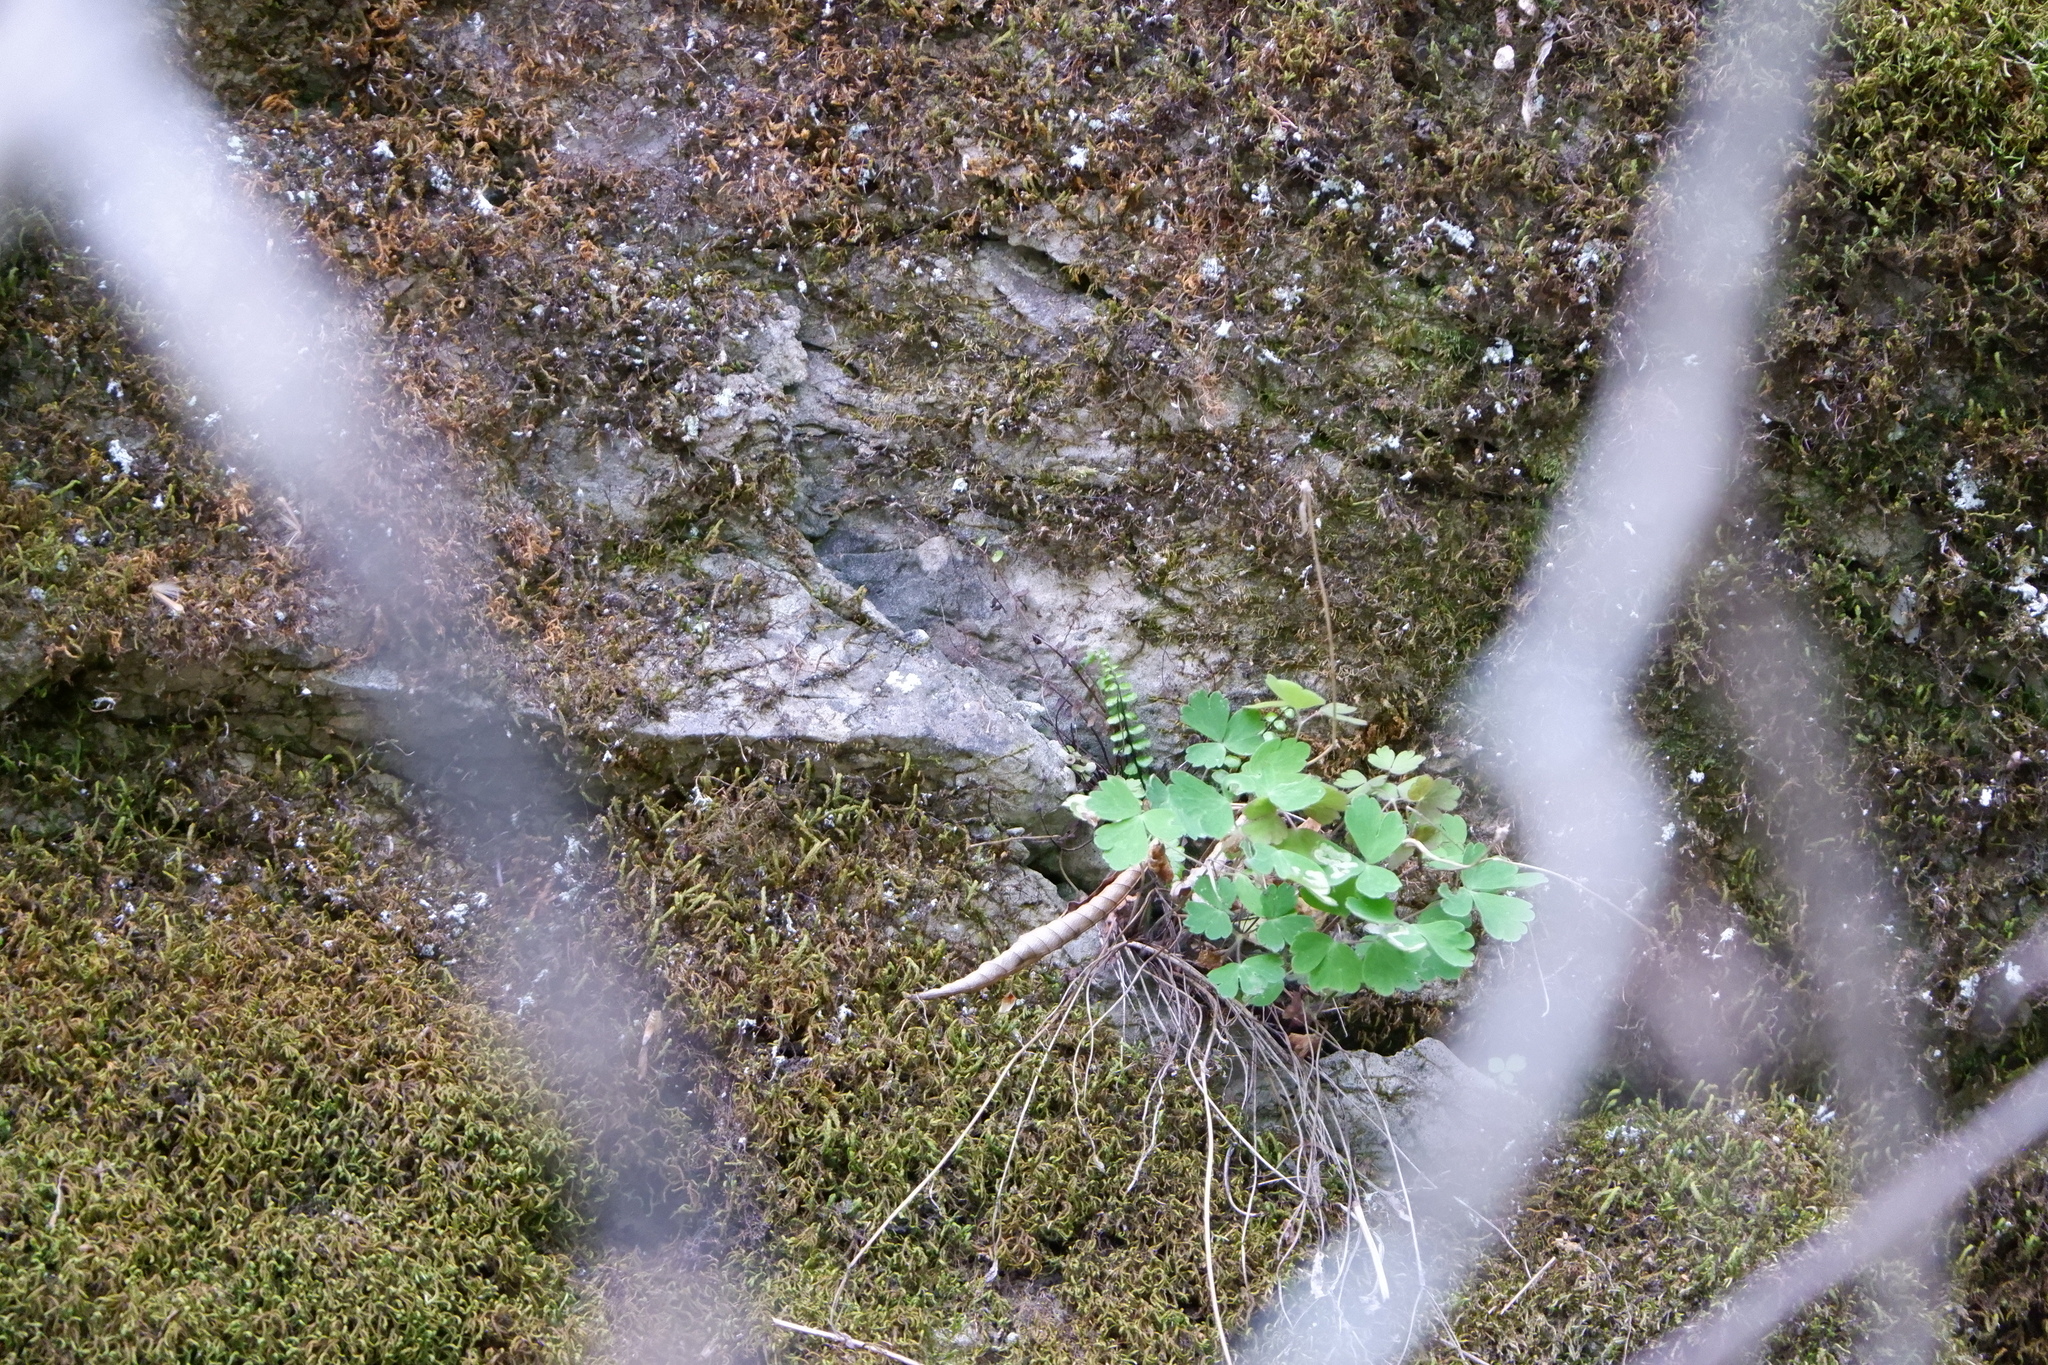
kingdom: Plantae
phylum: Tracheophyta
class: Polypodiopsida
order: Polypodiales
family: Aspleniaceae
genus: Asplenium
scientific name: Asplenium trichomanes
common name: Maidenhair spleenwort
